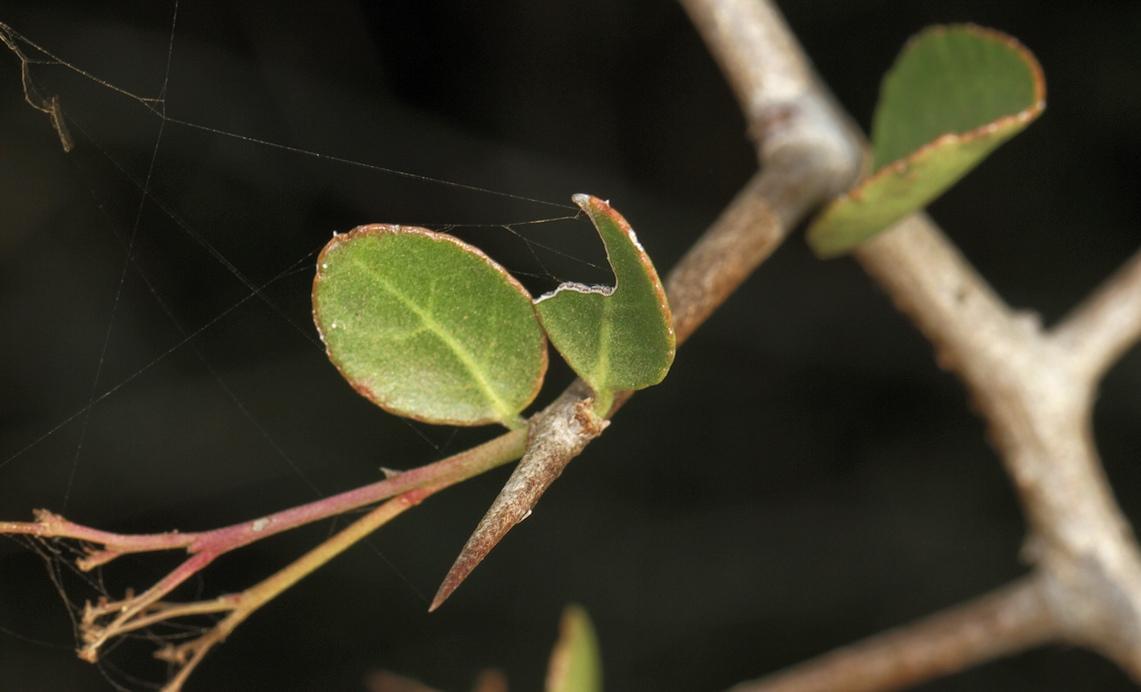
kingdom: Plantae
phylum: Tracheophyta
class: Magnoliopsida
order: Celastrales
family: Celastraceae
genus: Gymnosporia
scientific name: Gymnosporia maranguensis
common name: Tropical spike-thorn
